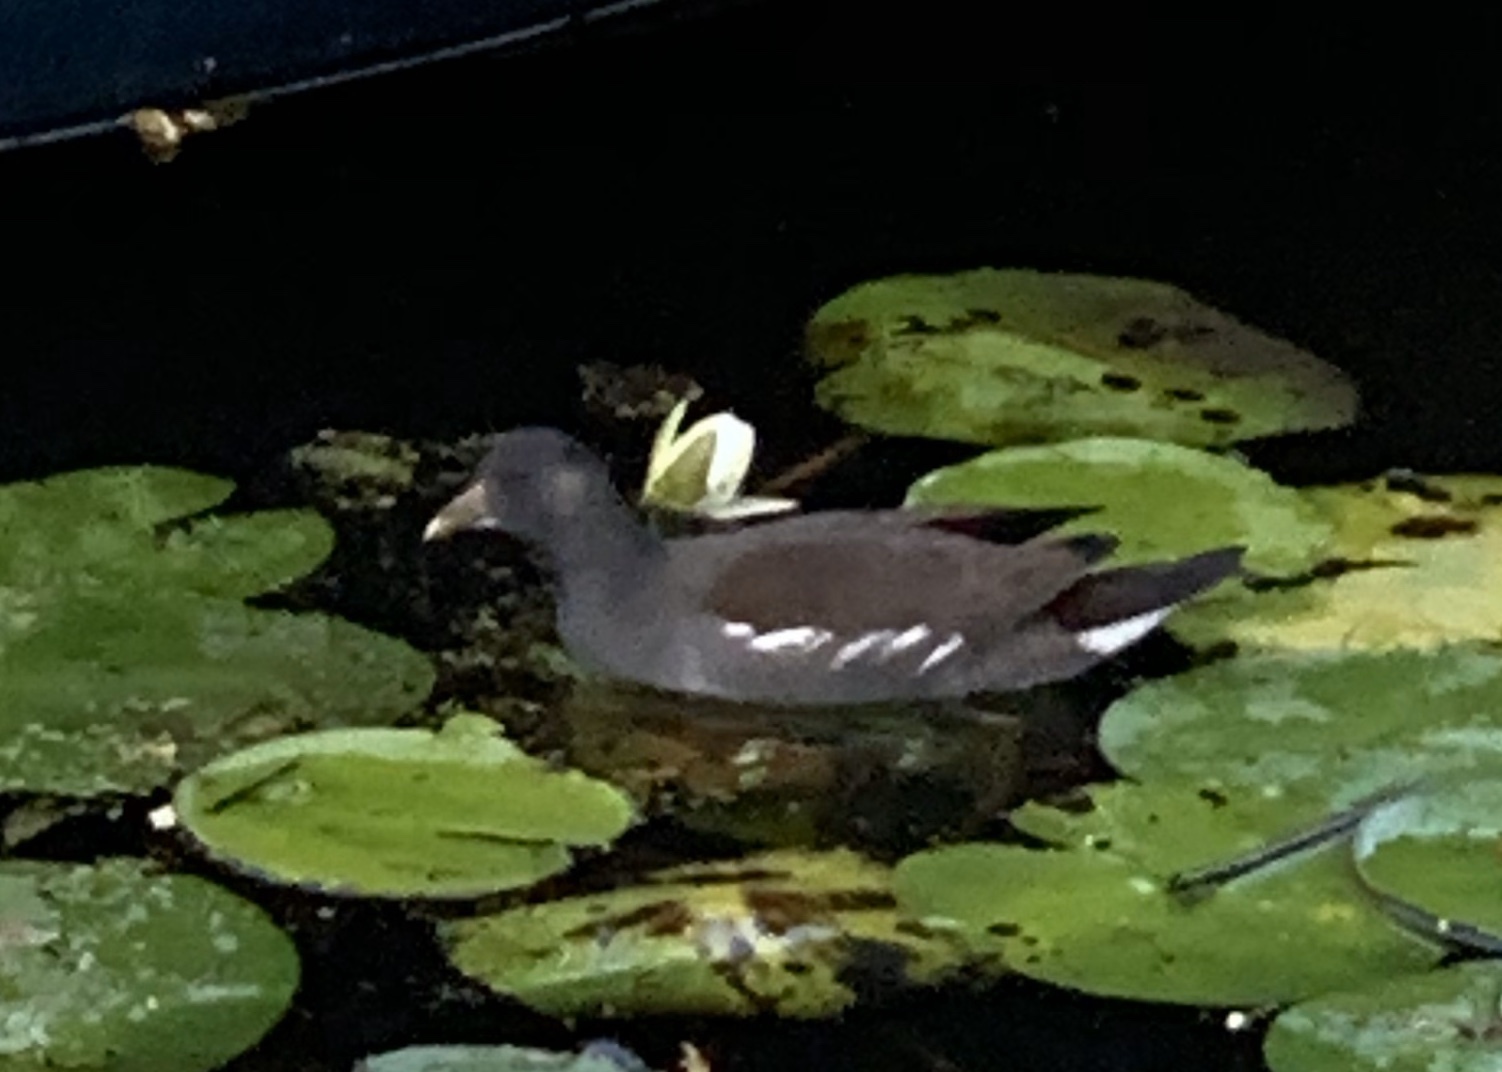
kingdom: Animalia
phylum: Chordata
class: Aves
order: Gruiformes
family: Rallidae
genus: Gallinula
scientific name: Gallinula chloropus
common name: Common moorhen
